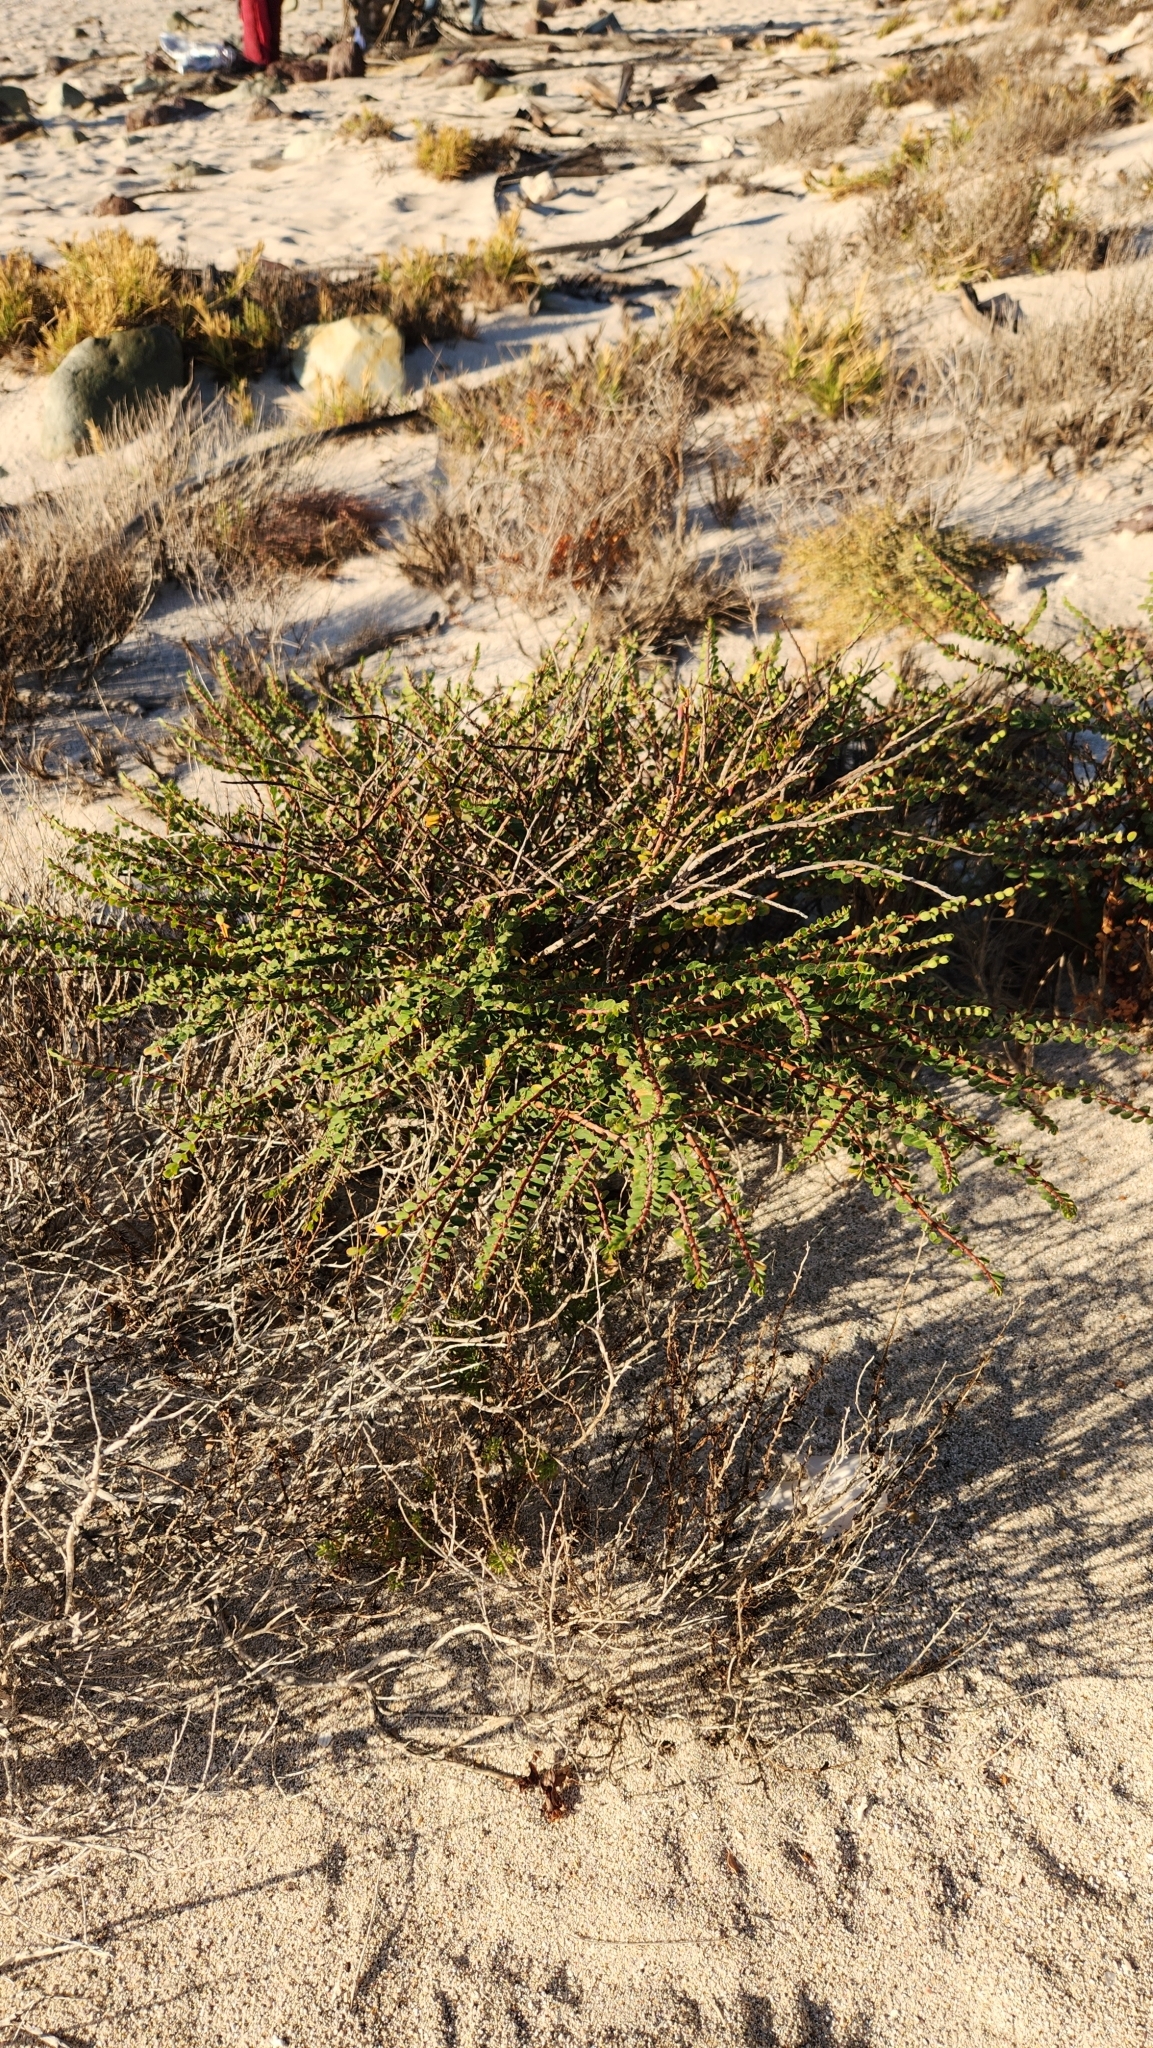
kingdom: Plantae
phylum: Tracheophyta
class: Magnoliopsida
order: Malpighiales
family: Euphorbiaceae
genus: Euphorbia
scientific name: Euphorbia magdalenae
